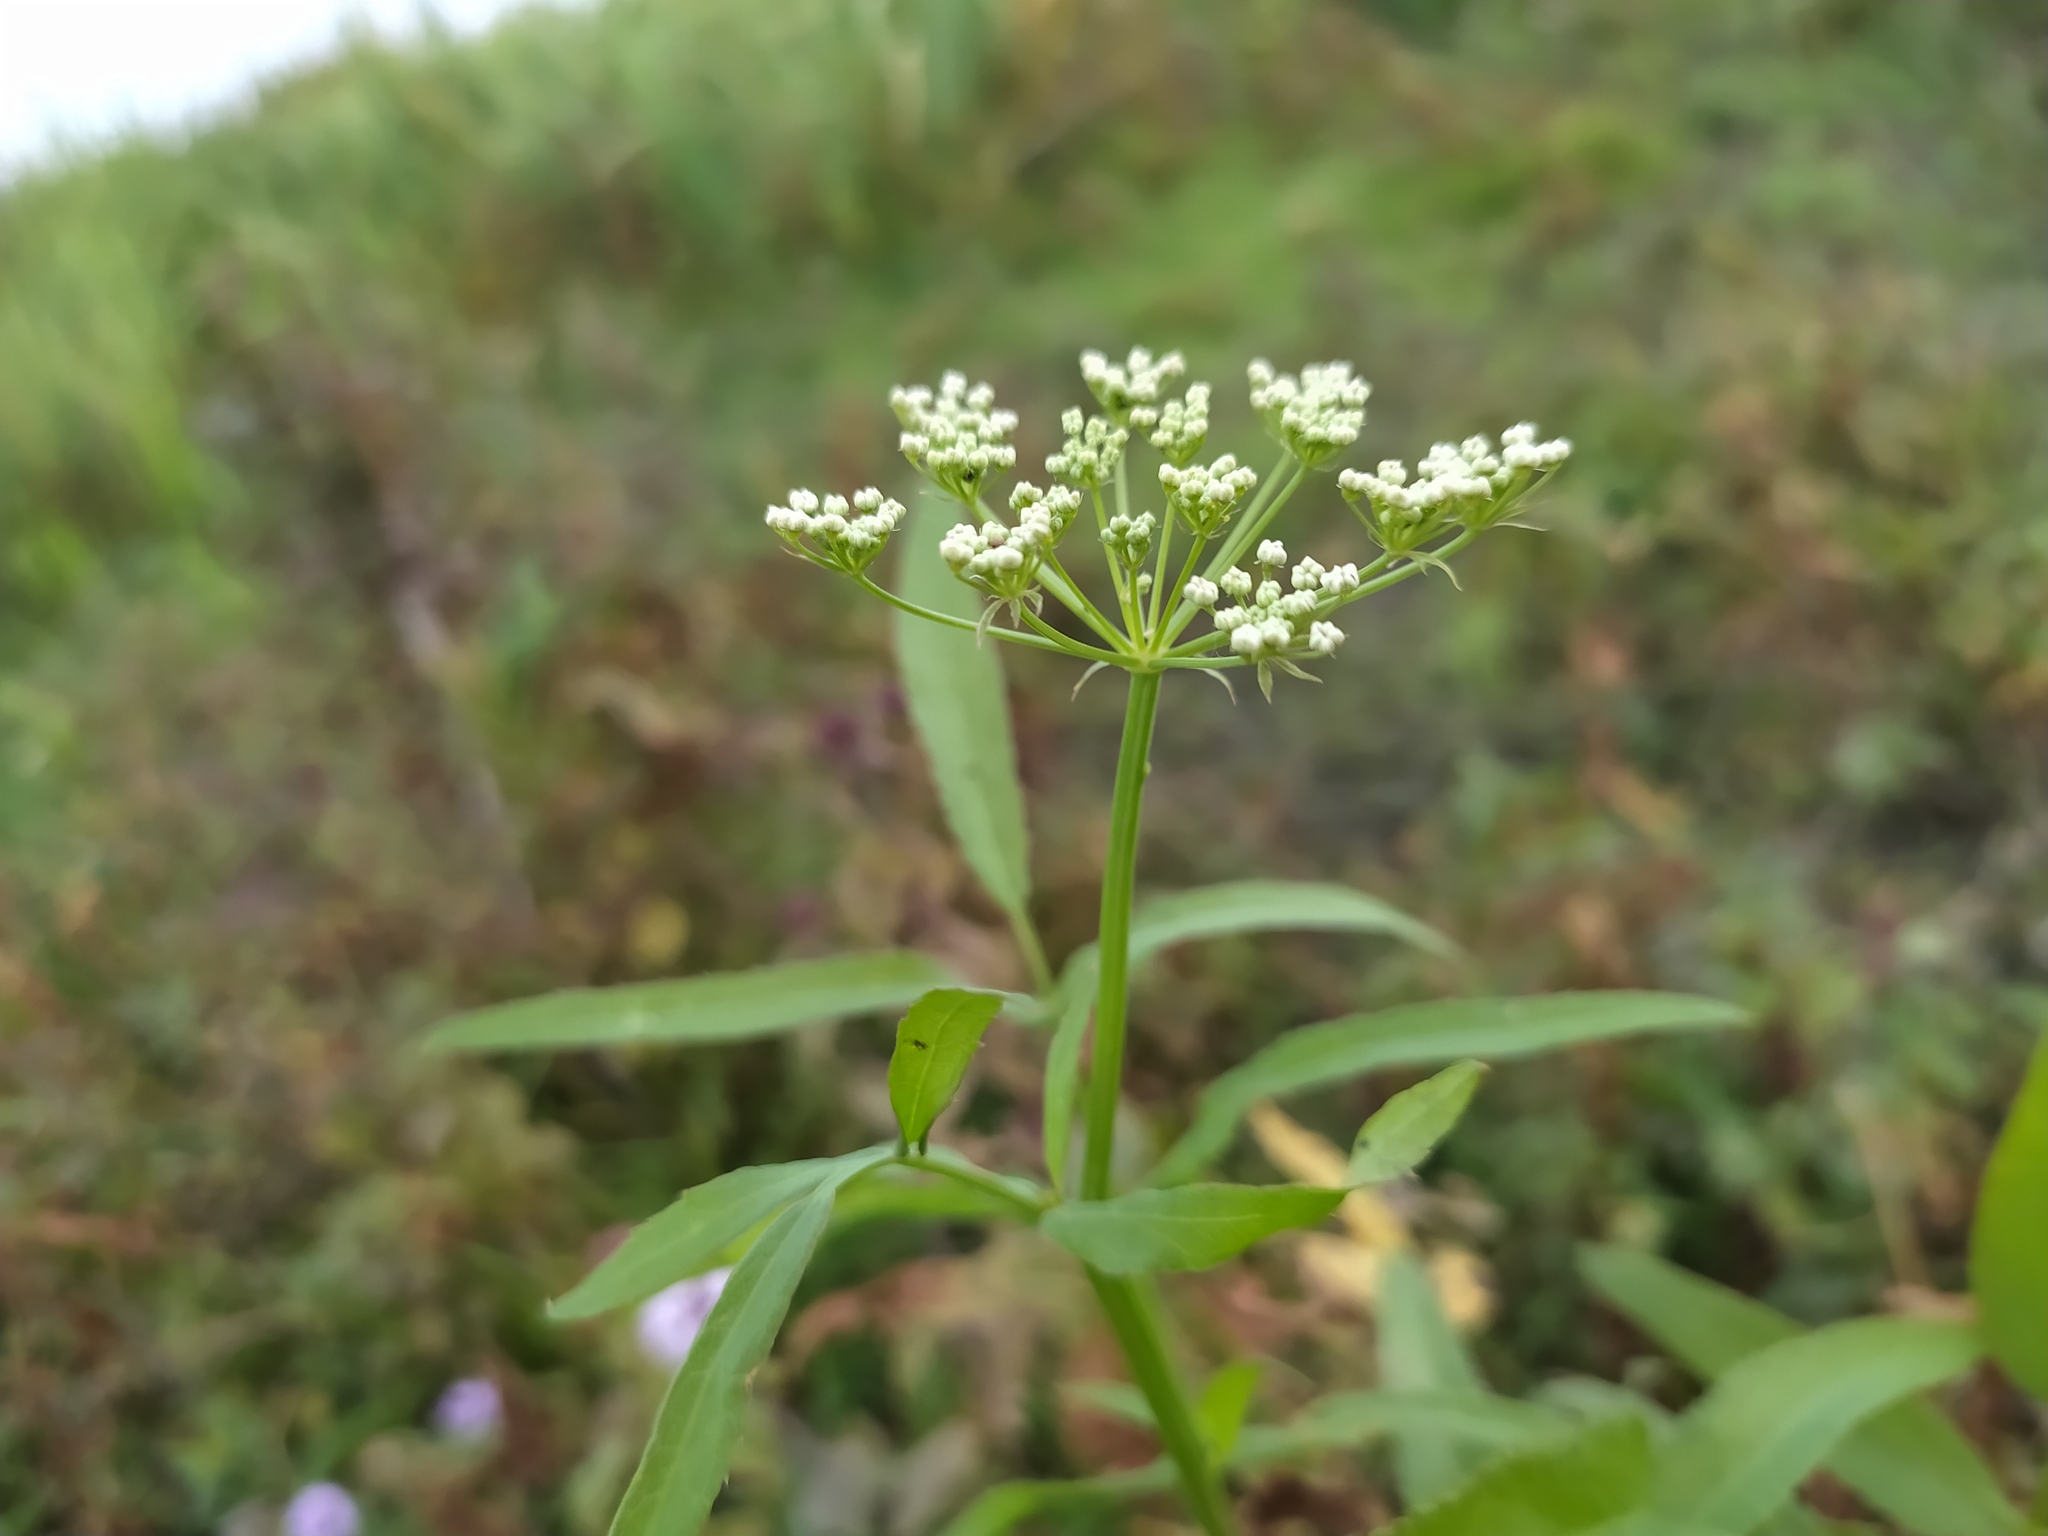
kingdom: Plantae
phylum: Tracheophyta
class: Magnoliopsida
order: Apiales
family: Apiaceae
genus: Sium
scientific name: Sium latifolium
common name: Greater water-parsnip
